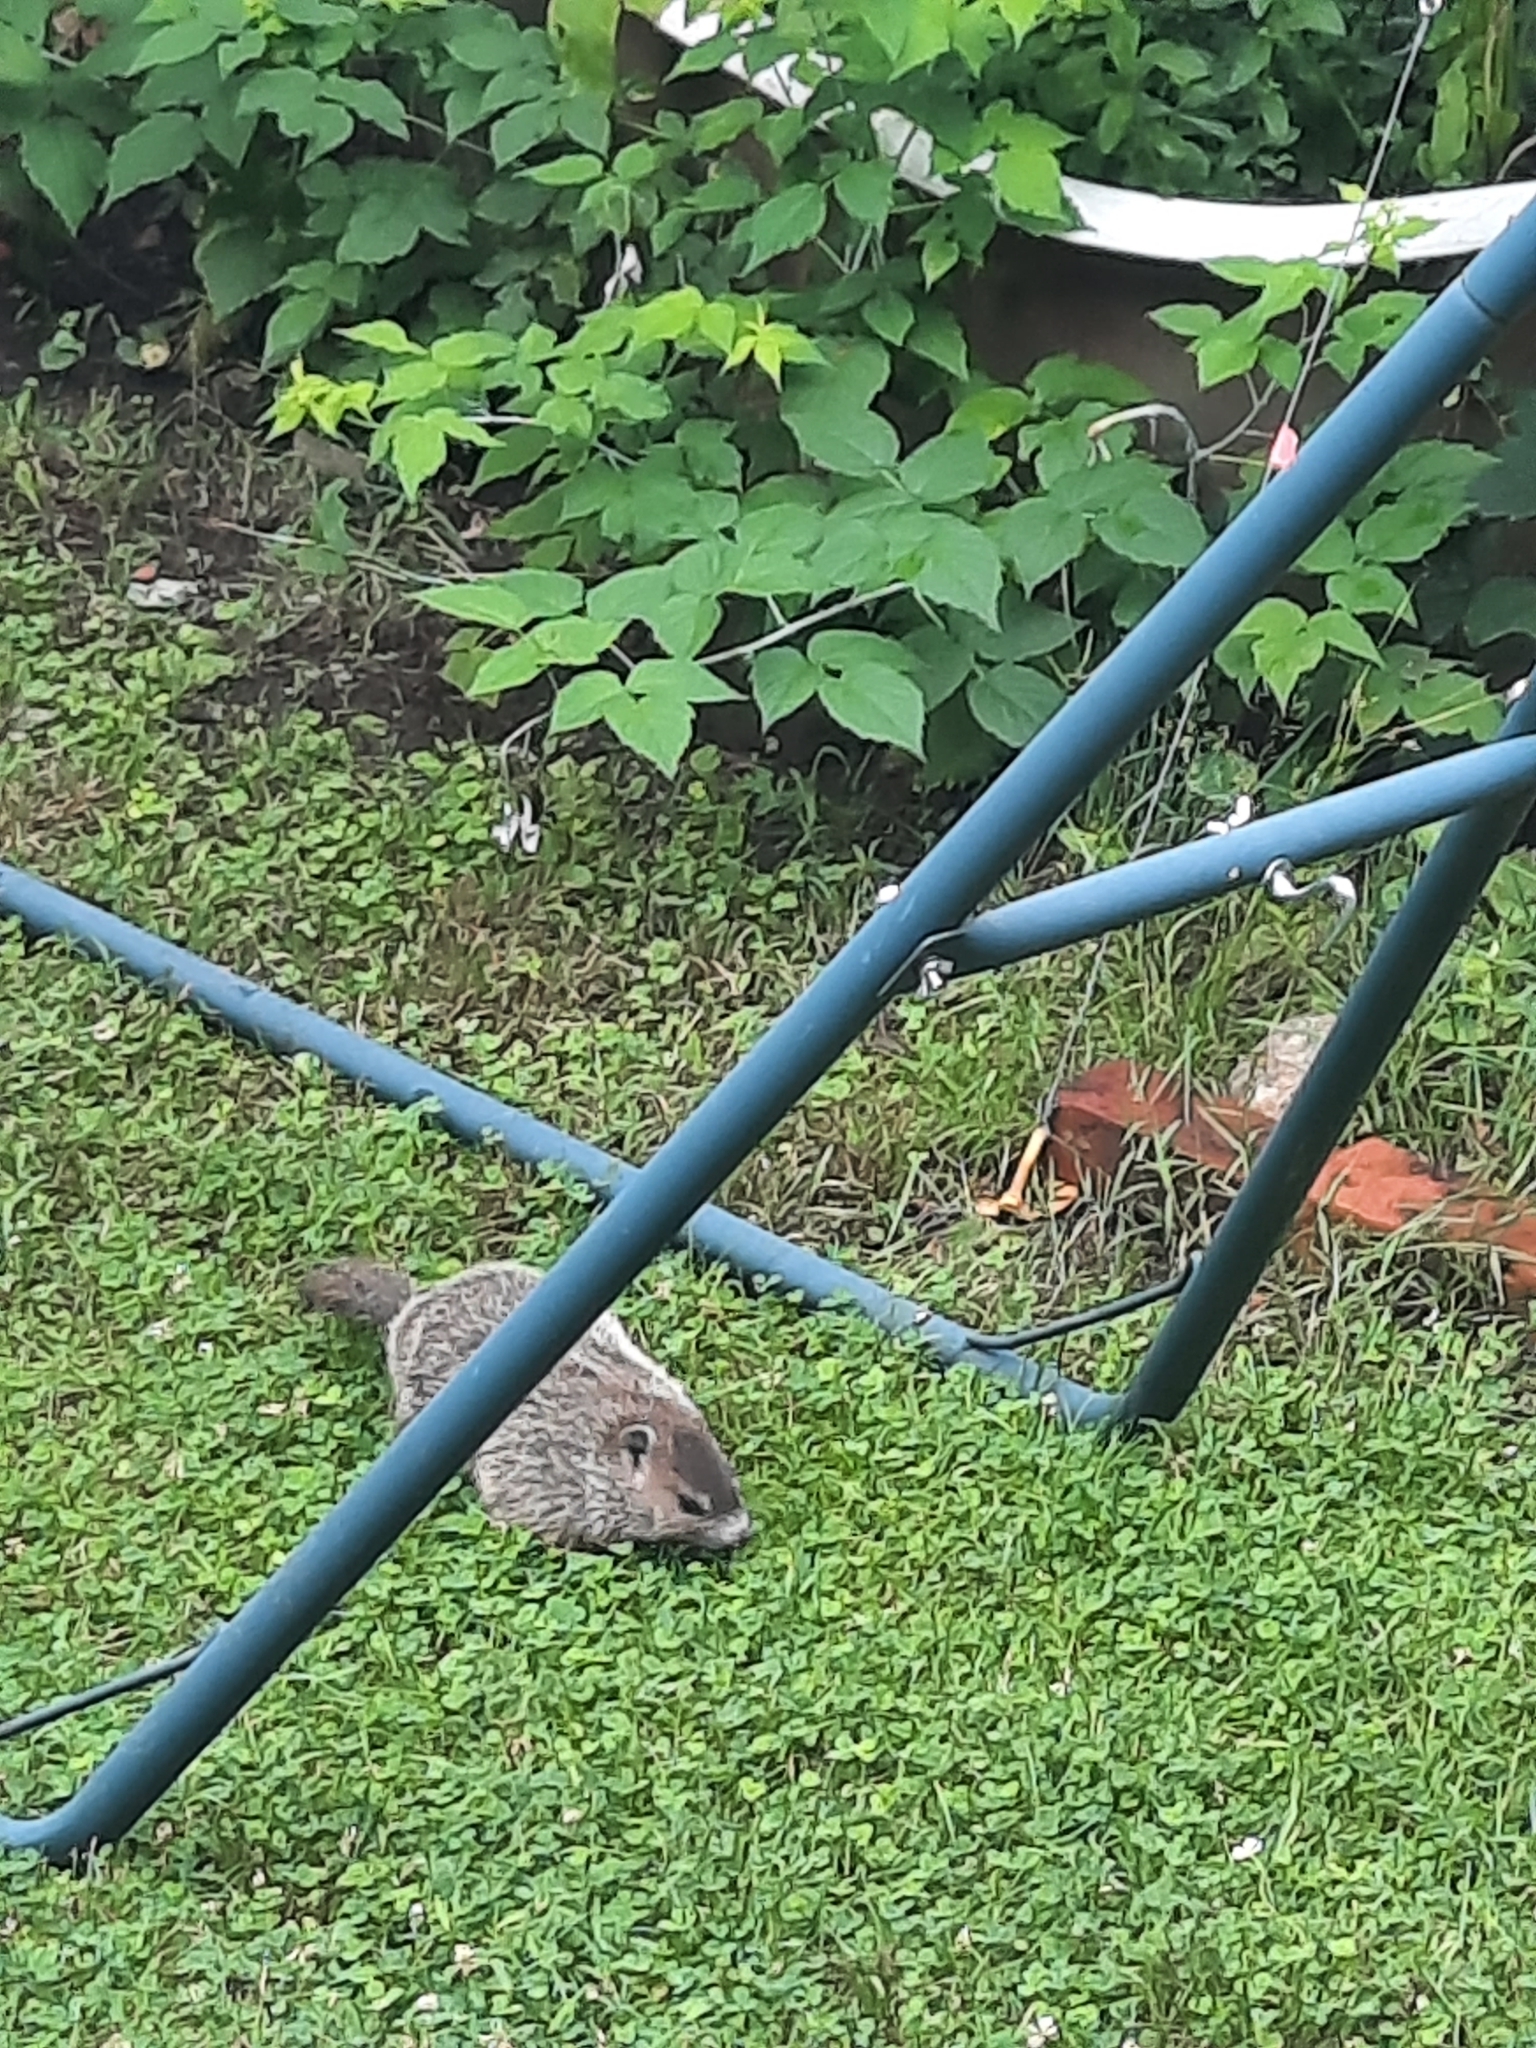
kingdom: Animalia
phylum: Chordata
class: Mammalia
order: Rodentia
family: Sciuridae
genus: Marmota
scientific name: Marmota monax
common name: Groundhog
